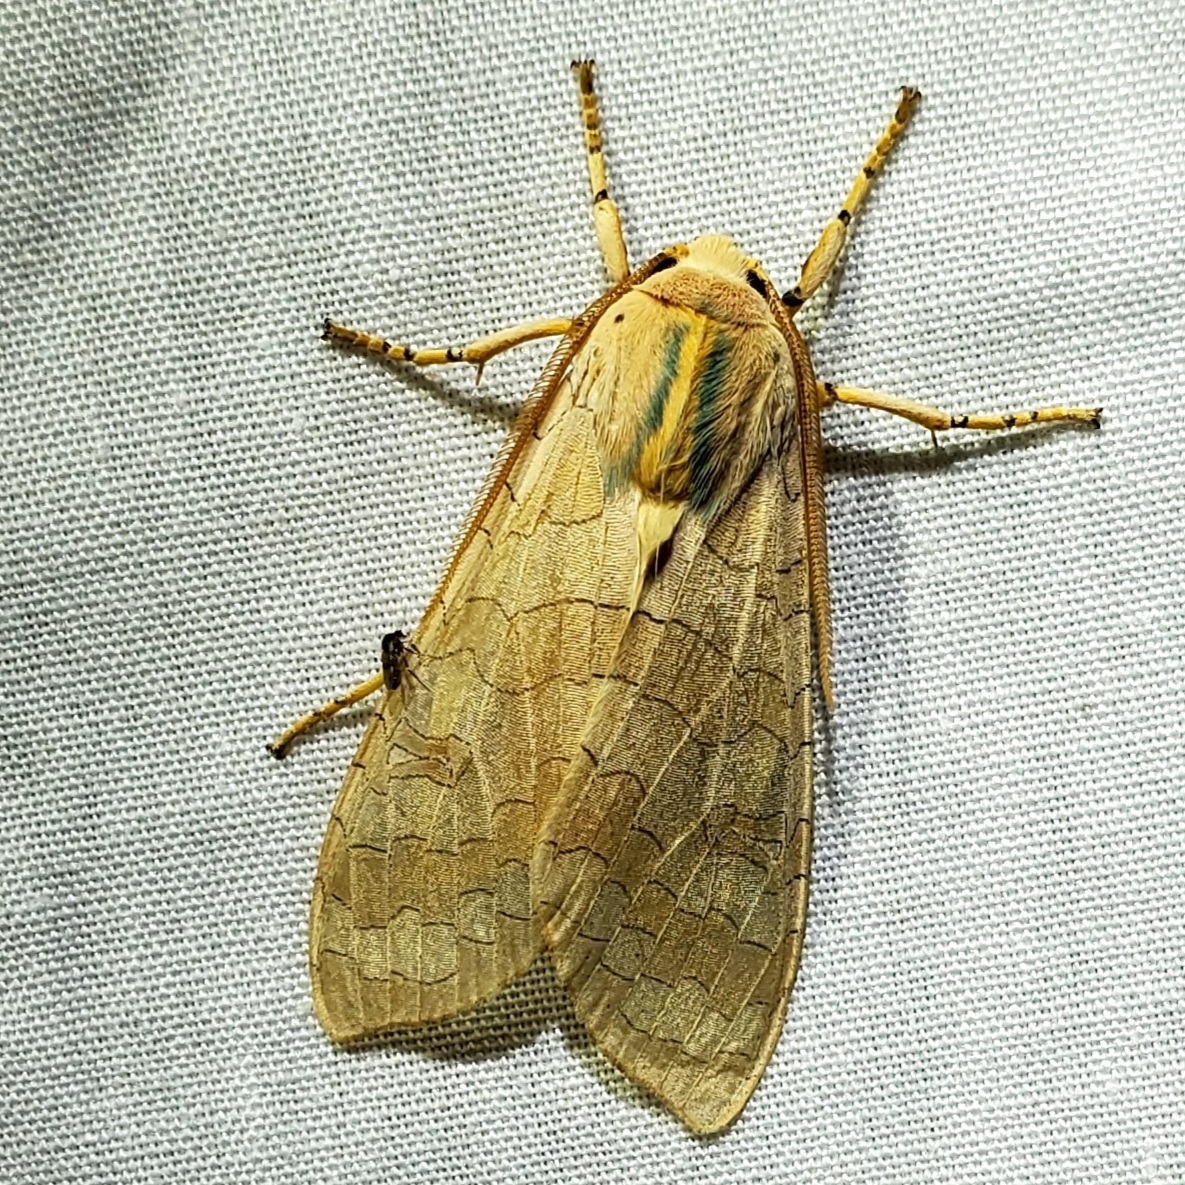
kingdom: Animalia
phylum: Arthropoda
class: Insecta
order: Lepidoptera
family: Erebidae
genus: Halysidota
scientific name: Halysidota
